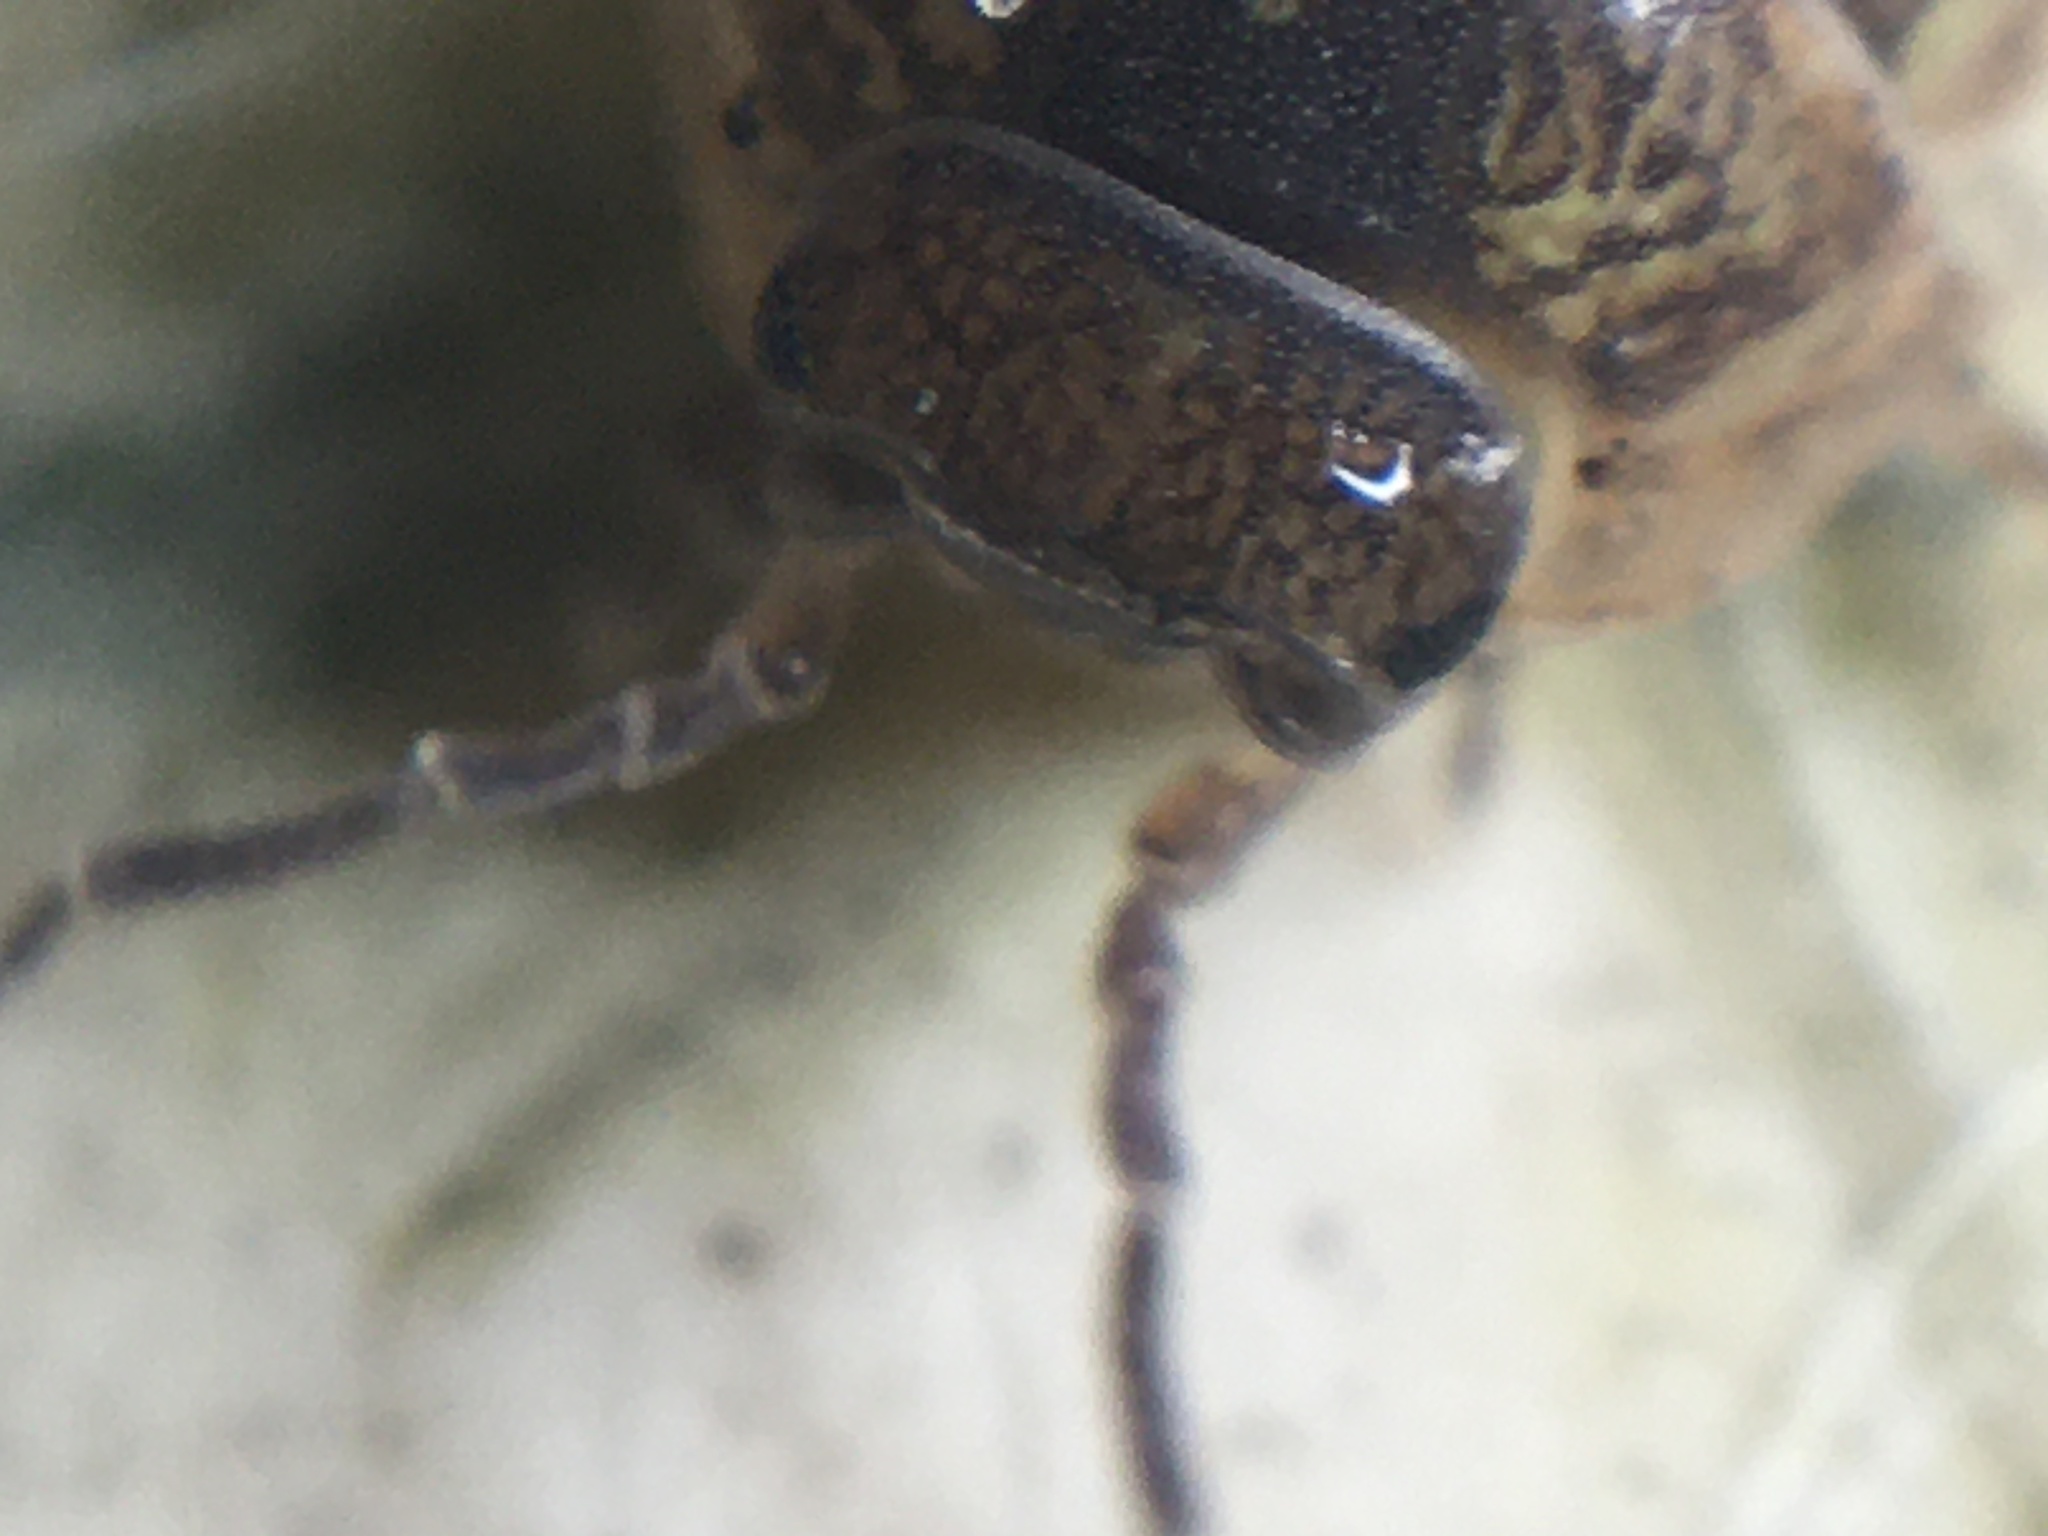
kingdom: Animalia
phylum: Arthropoda
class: Malacostraca
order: Isopoda
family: Armadillidiidae
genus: Armadillidium
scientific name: Armadillidium vulgare
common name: Common pill woodlouse
